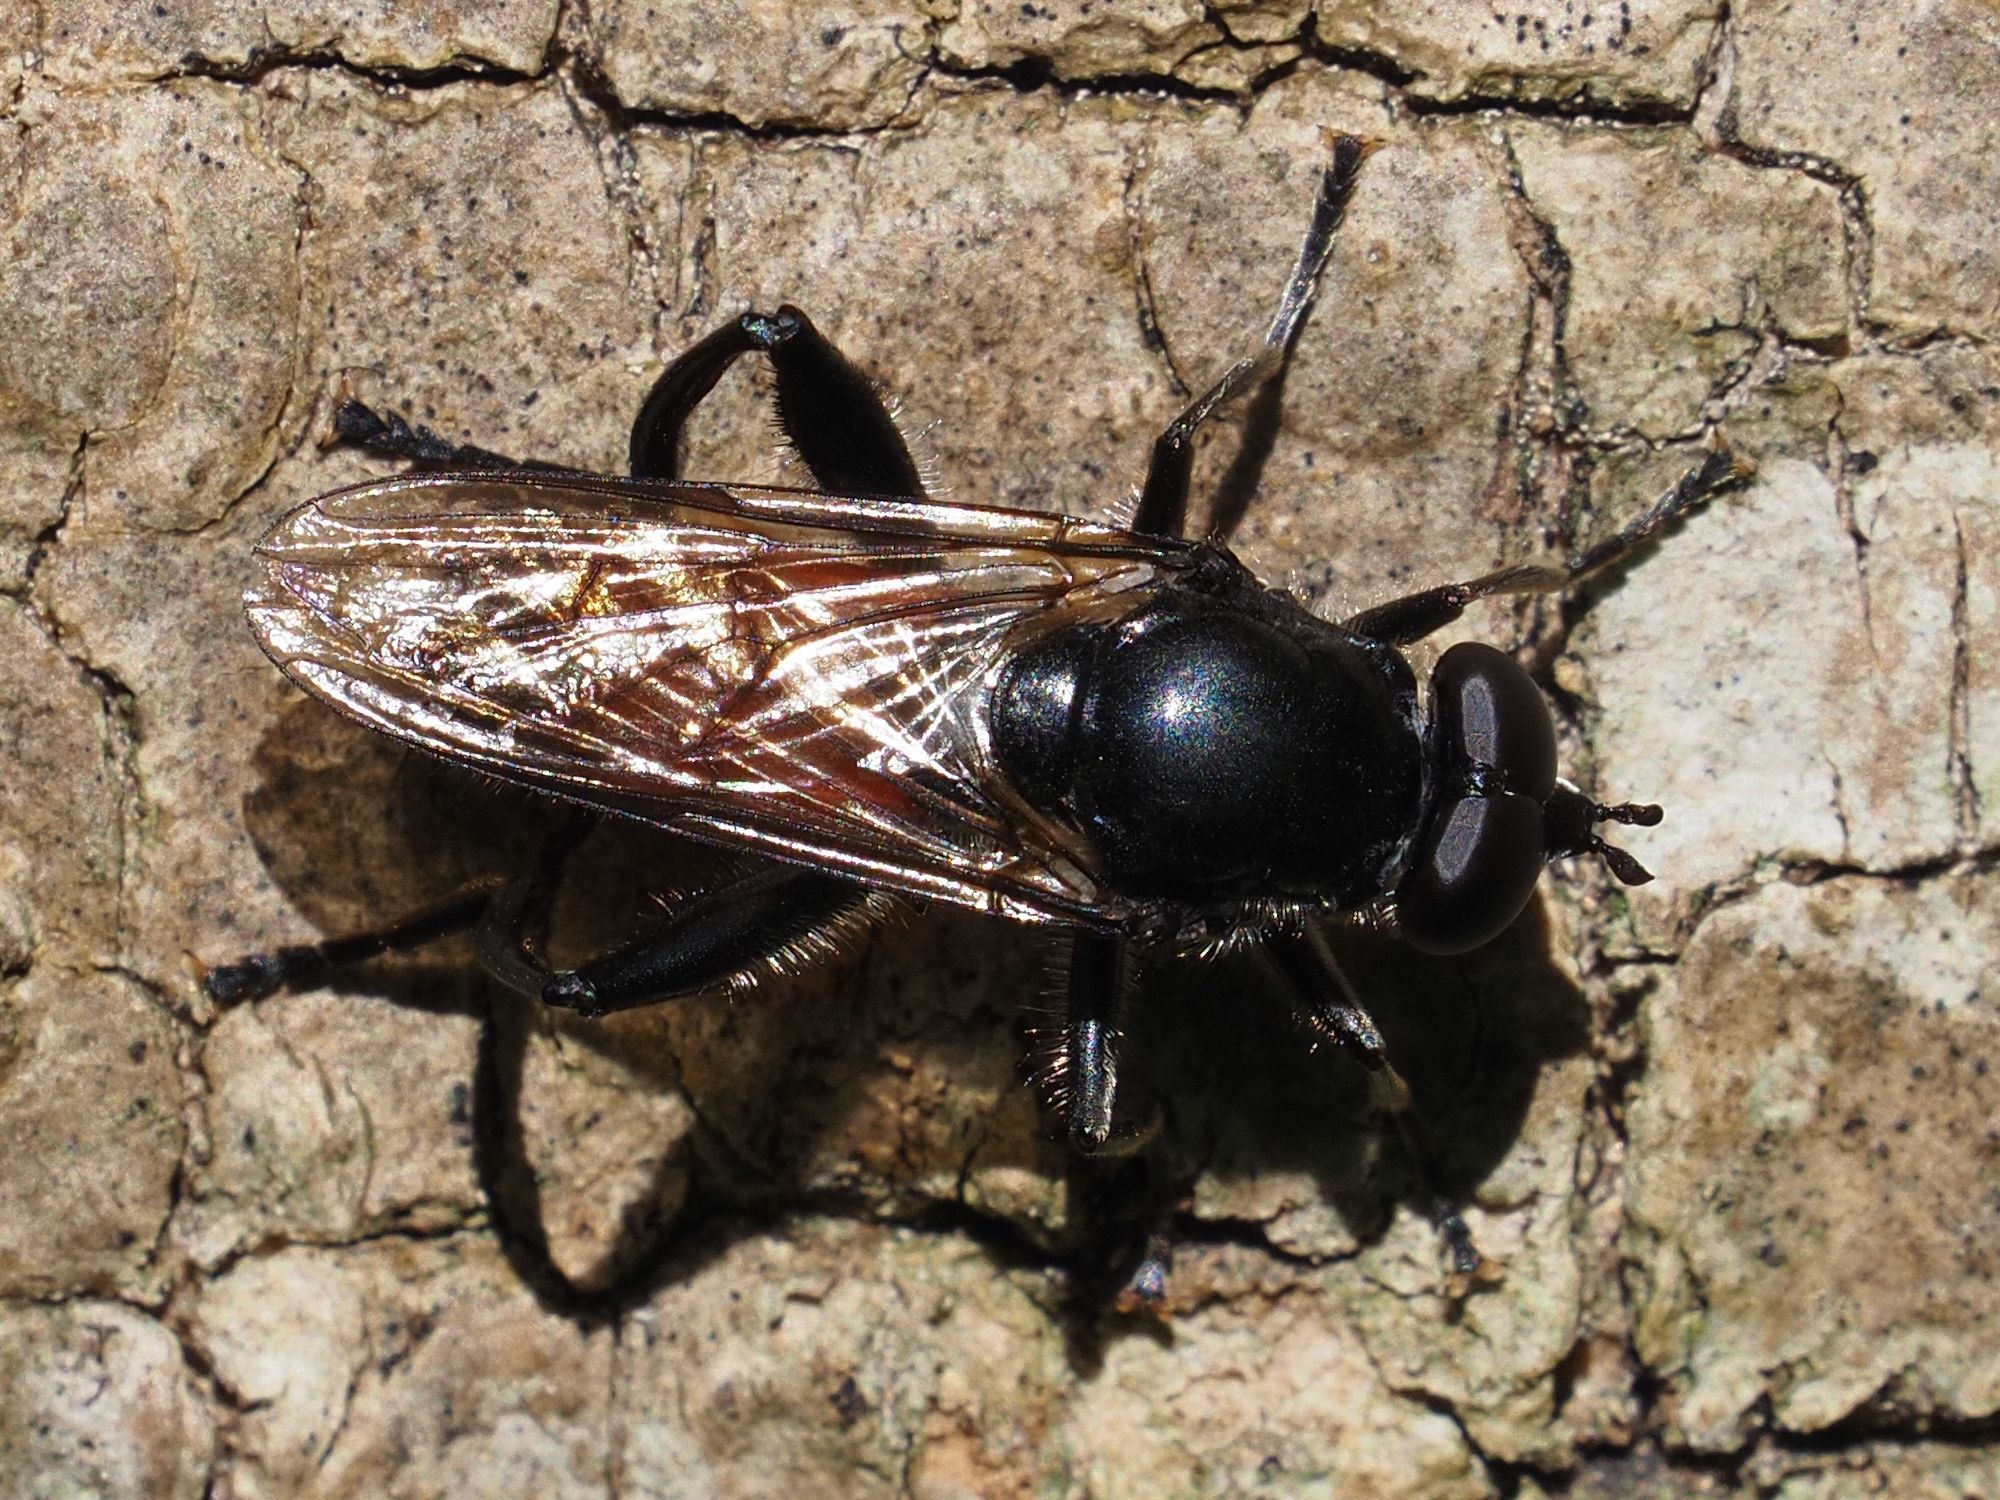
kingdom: Animalia
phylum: Arthropoda
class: Insecta
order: Diptera
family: Syrphidae
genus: Brachypalpoides
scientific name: Brachypalpoides lenta
